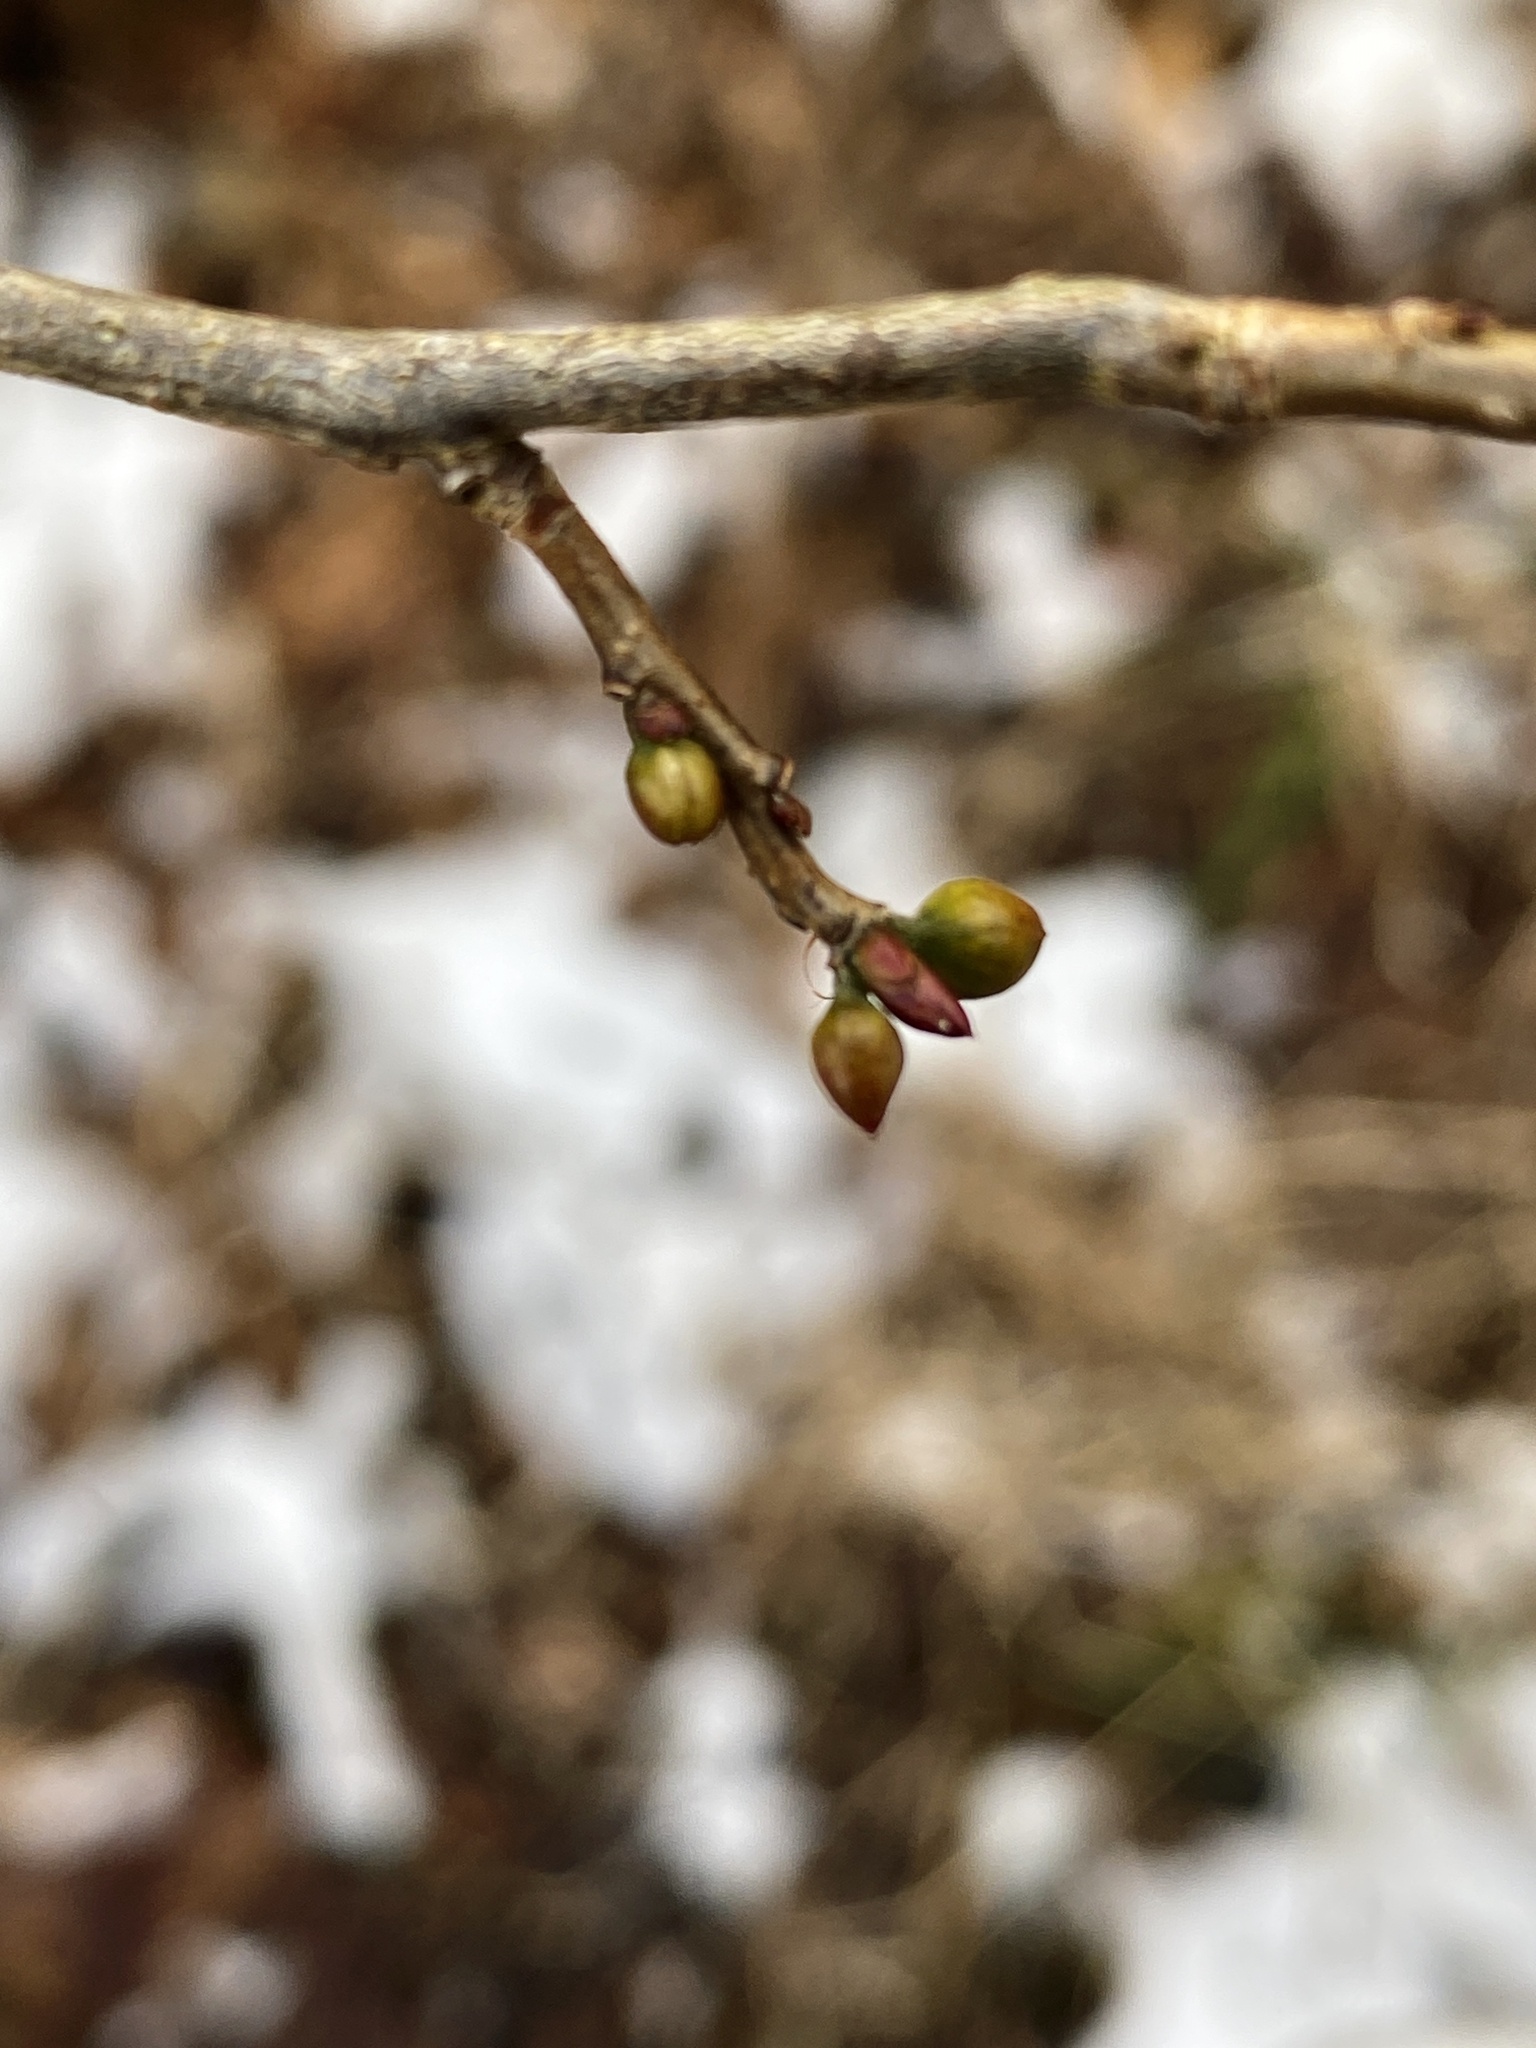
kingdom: Plantae
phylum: Tracheophyta
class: Magnoliopsida
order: Laurales
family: Lauraceae
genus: Lindera
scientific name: Lindera benzoin
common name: Spicebush
